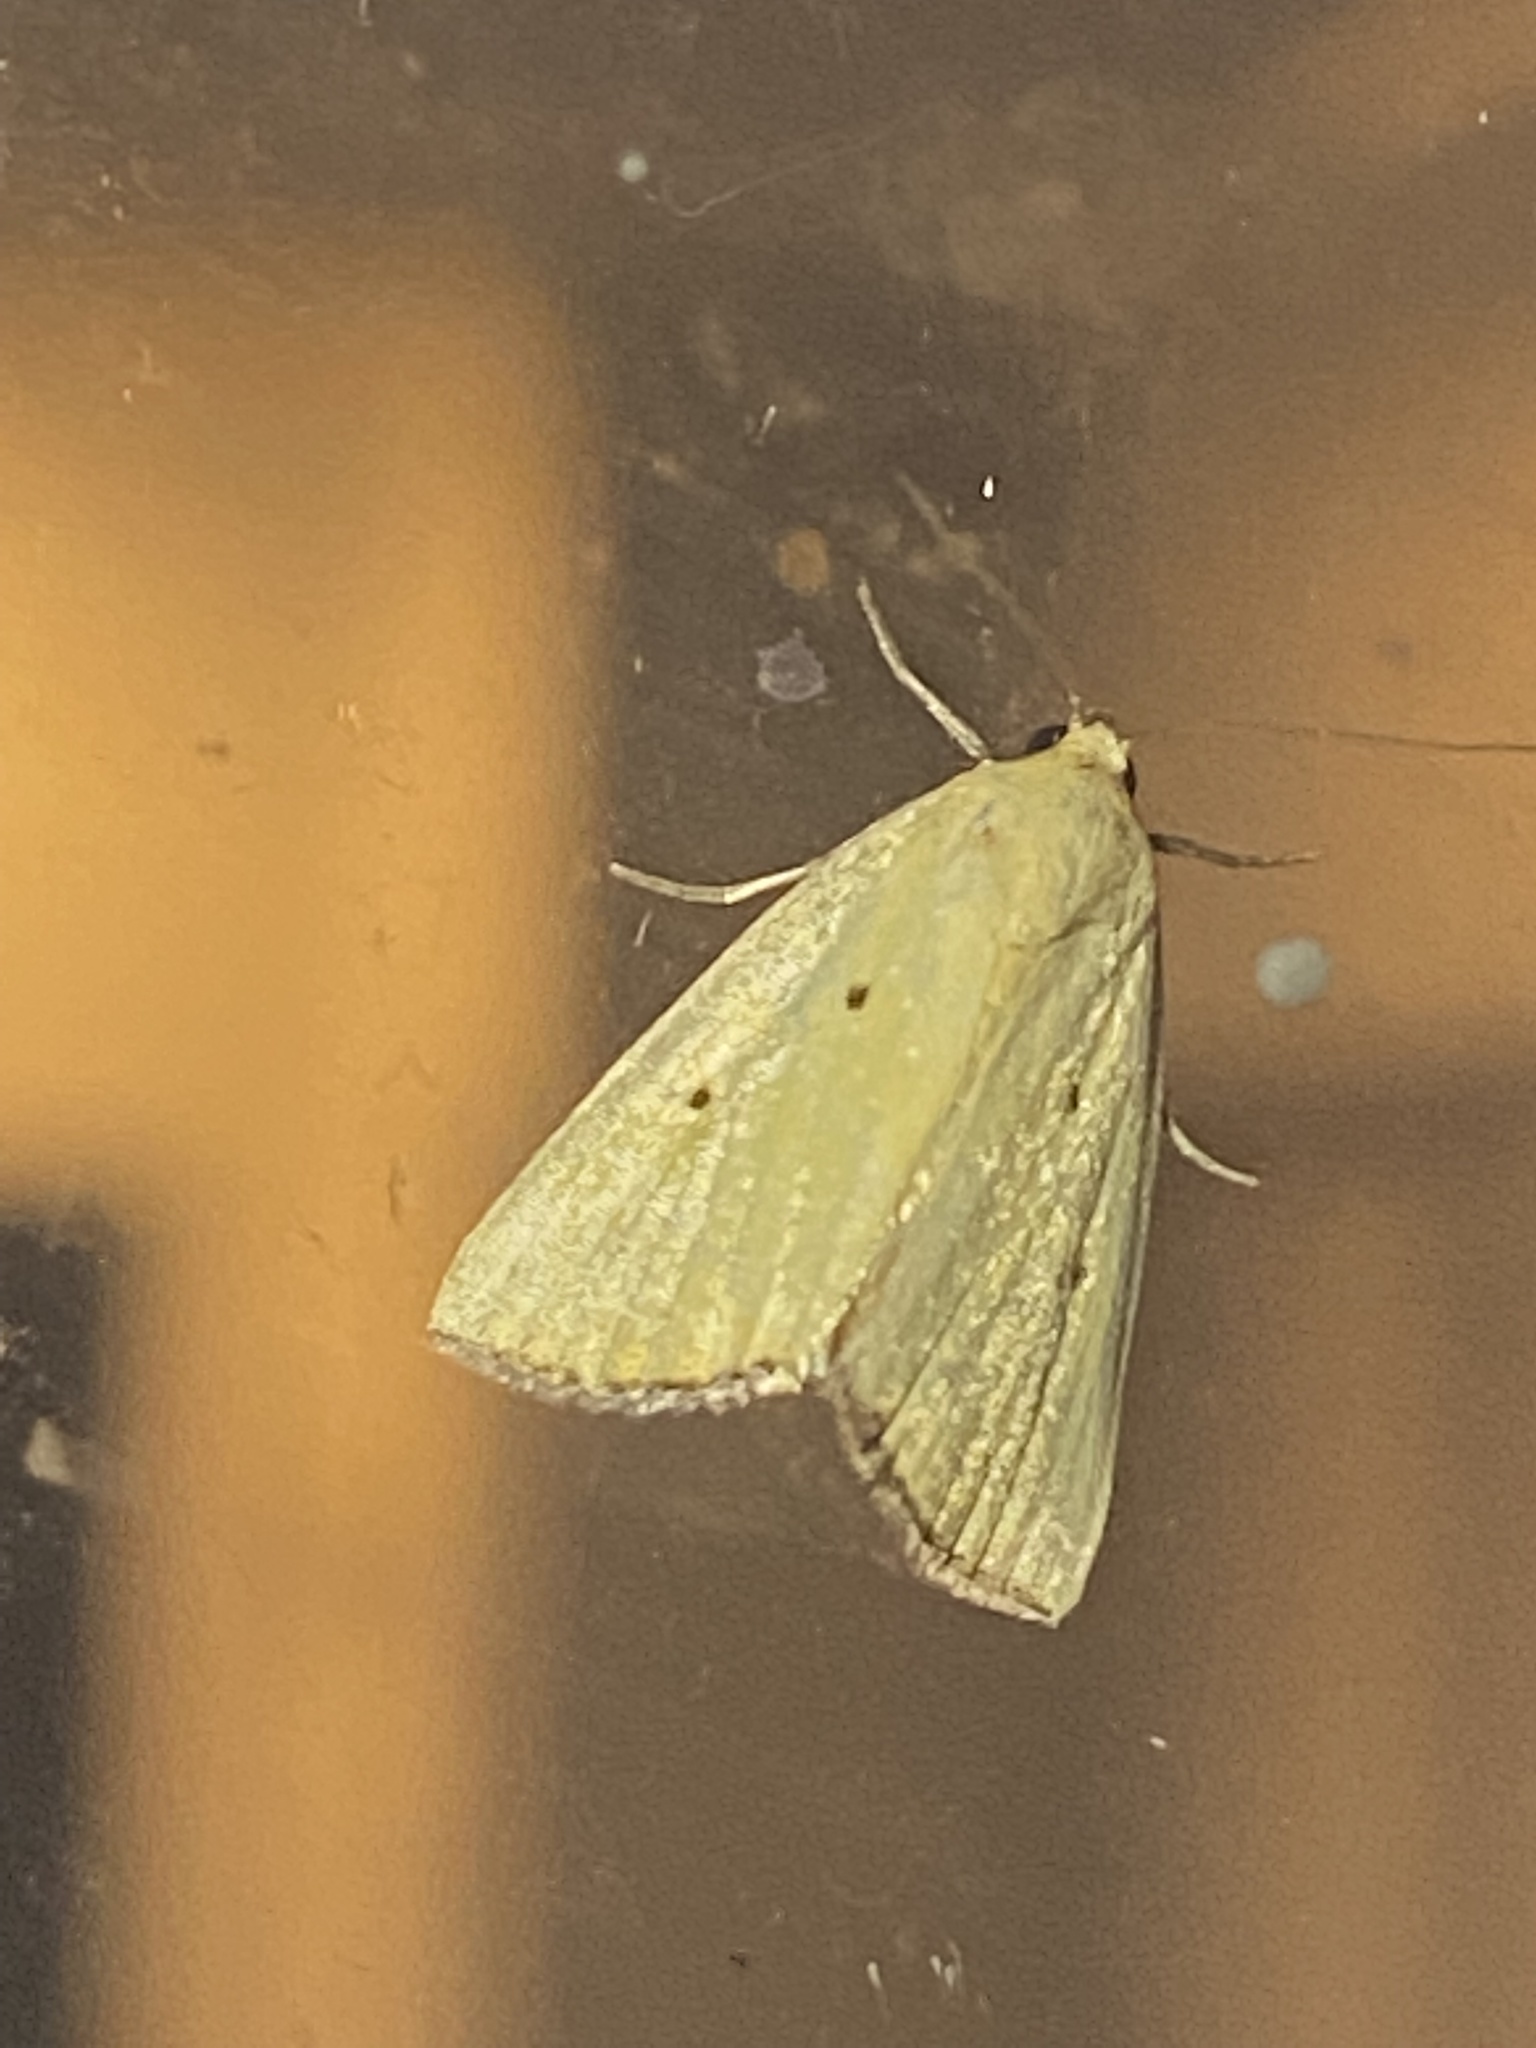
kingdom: Animalia
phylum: Arthropoda
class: Insecta
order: Lepidoptera
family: Noctuidae
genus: Marimatha
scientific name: Marimatha nigrofimbria
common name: Black-bordered lemon moth
